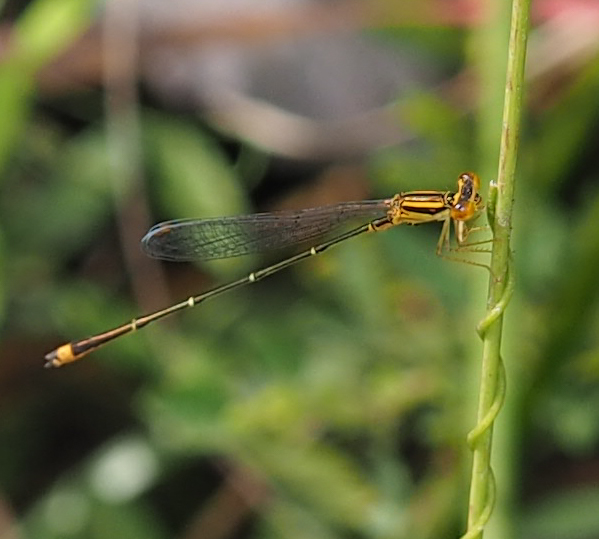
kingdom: Animalia
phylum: Arthropoda
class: Insecta
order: Odonata
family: Coenagrionidae
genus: Enallagma
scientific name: Enallagma signatum
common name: Orange bluet
